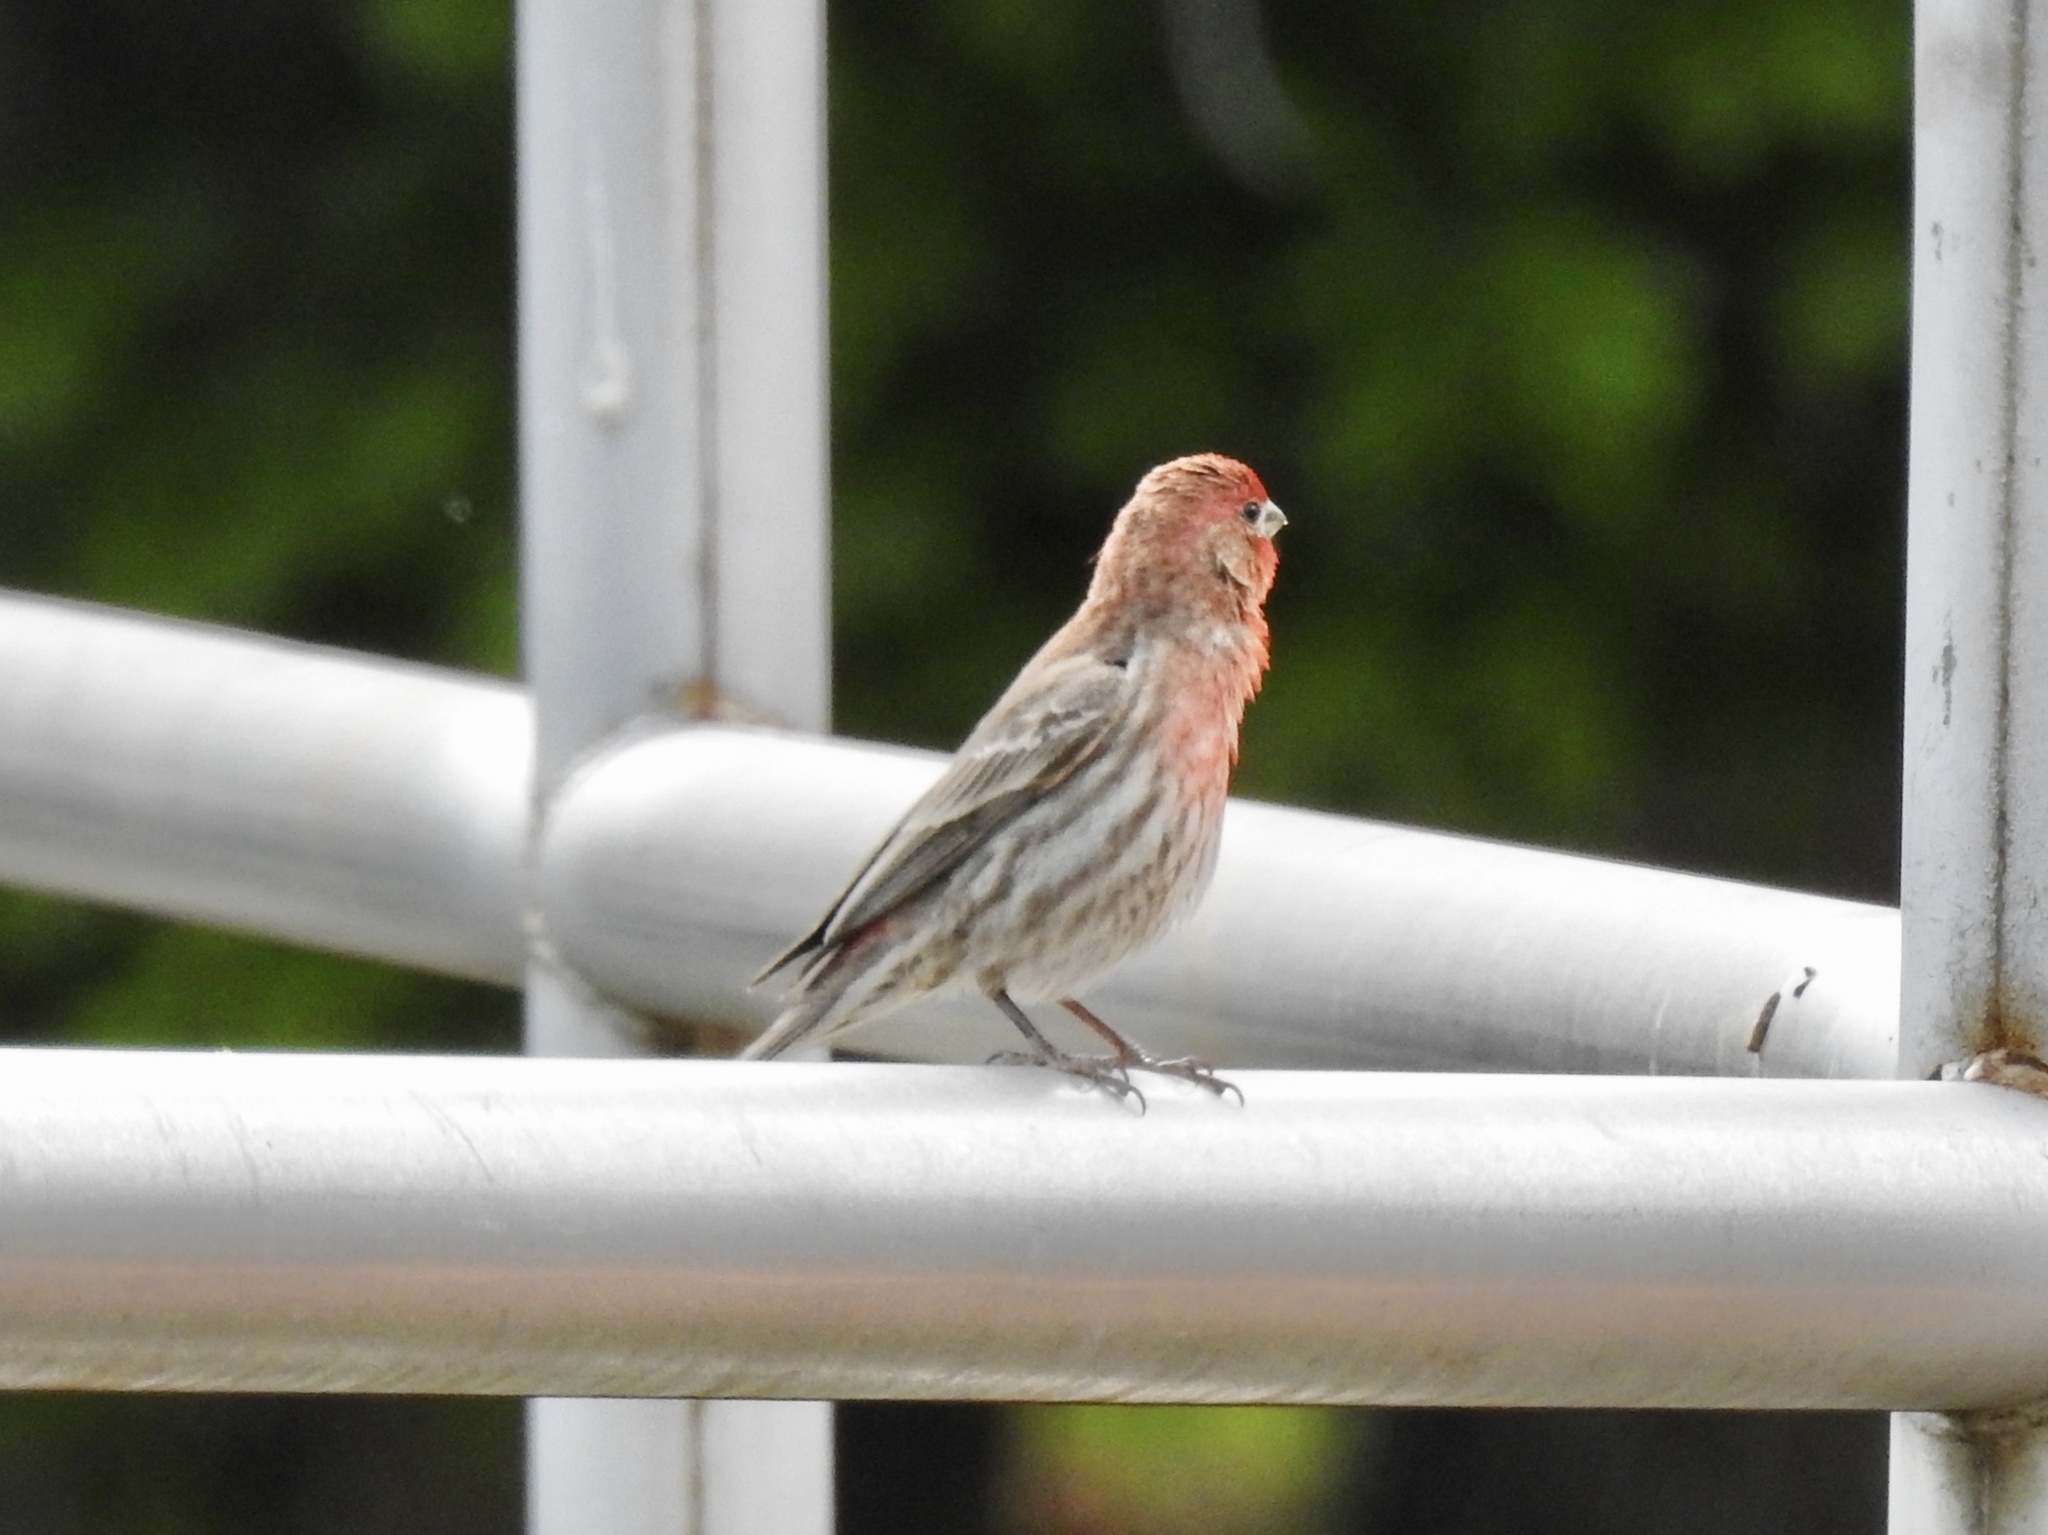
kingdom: Animalia
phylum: Chordata
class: Aves
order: Passeriformes
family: Fringillidae
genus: Haemorhous
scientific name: Haemorhous mexicanus
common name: House finch
